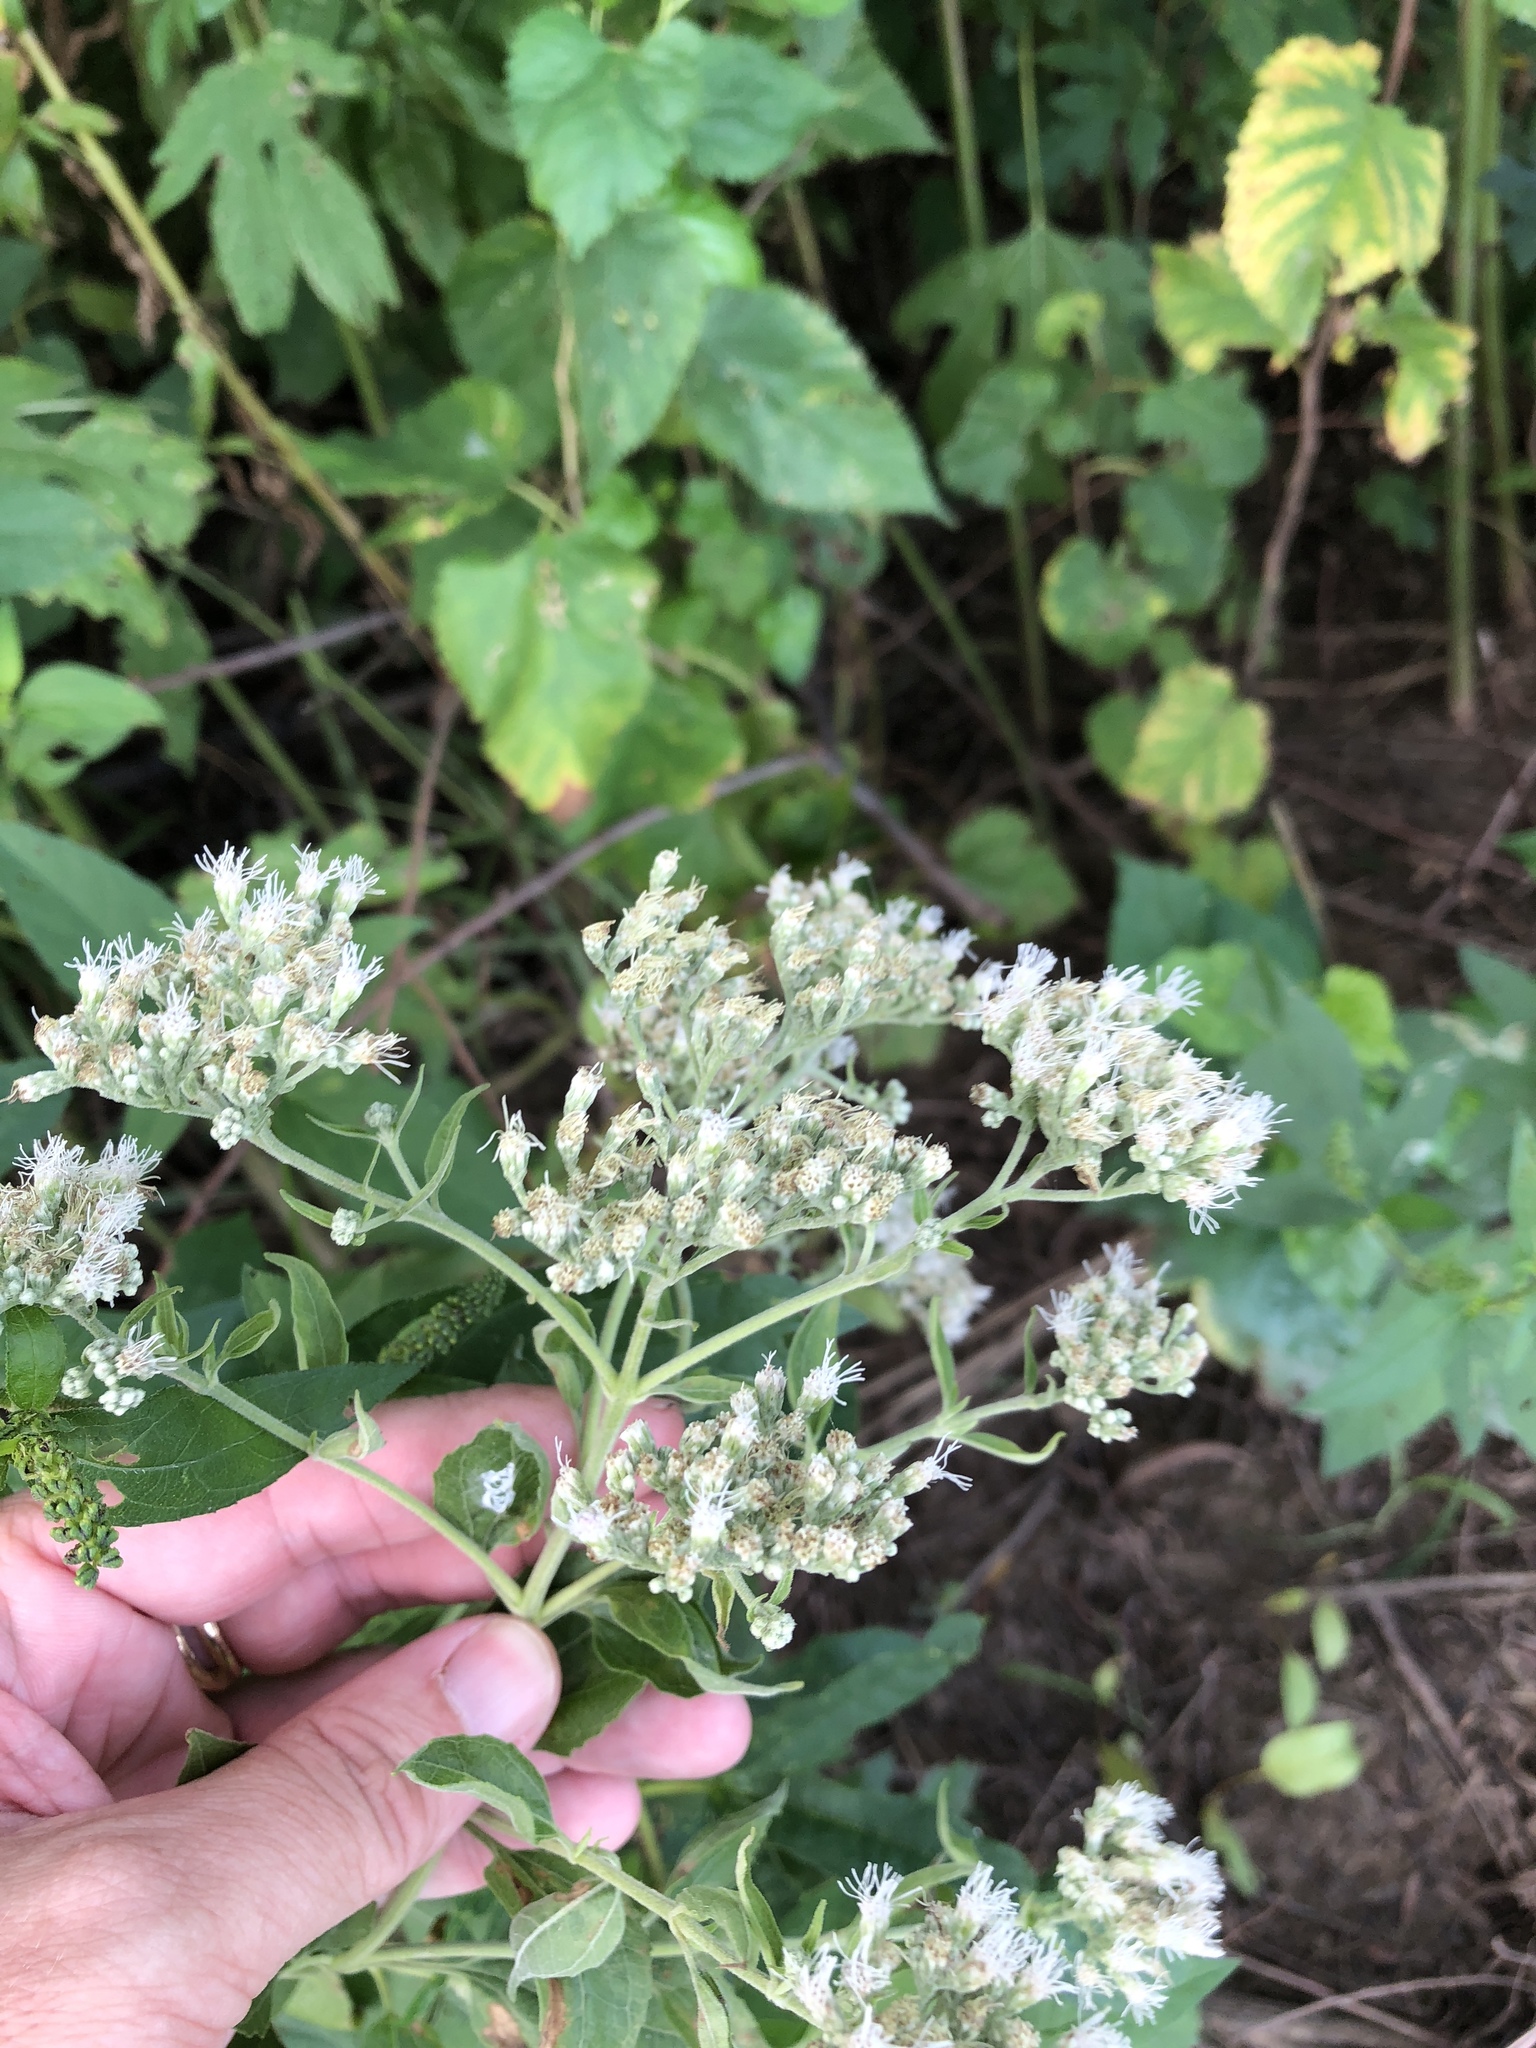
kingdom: Plantae
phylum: Tracheophyta
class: Magnoliopsida
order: Asterales
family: Asteraceae
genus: Eupatorium
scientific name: Eupatorium serotinum
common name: Late boneset
